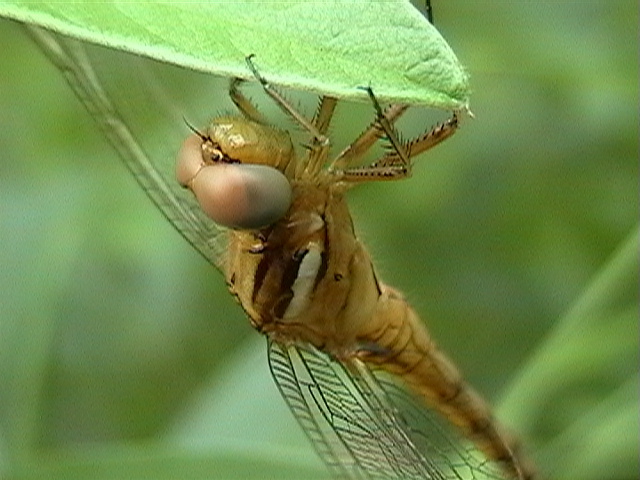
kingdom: Animalia
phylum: Arthropoda
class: Insecta
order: Odonata
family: Libellulidae
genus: Orthetrum
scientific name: Orthetrum chrysostigma
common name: Epaulet skimmer
